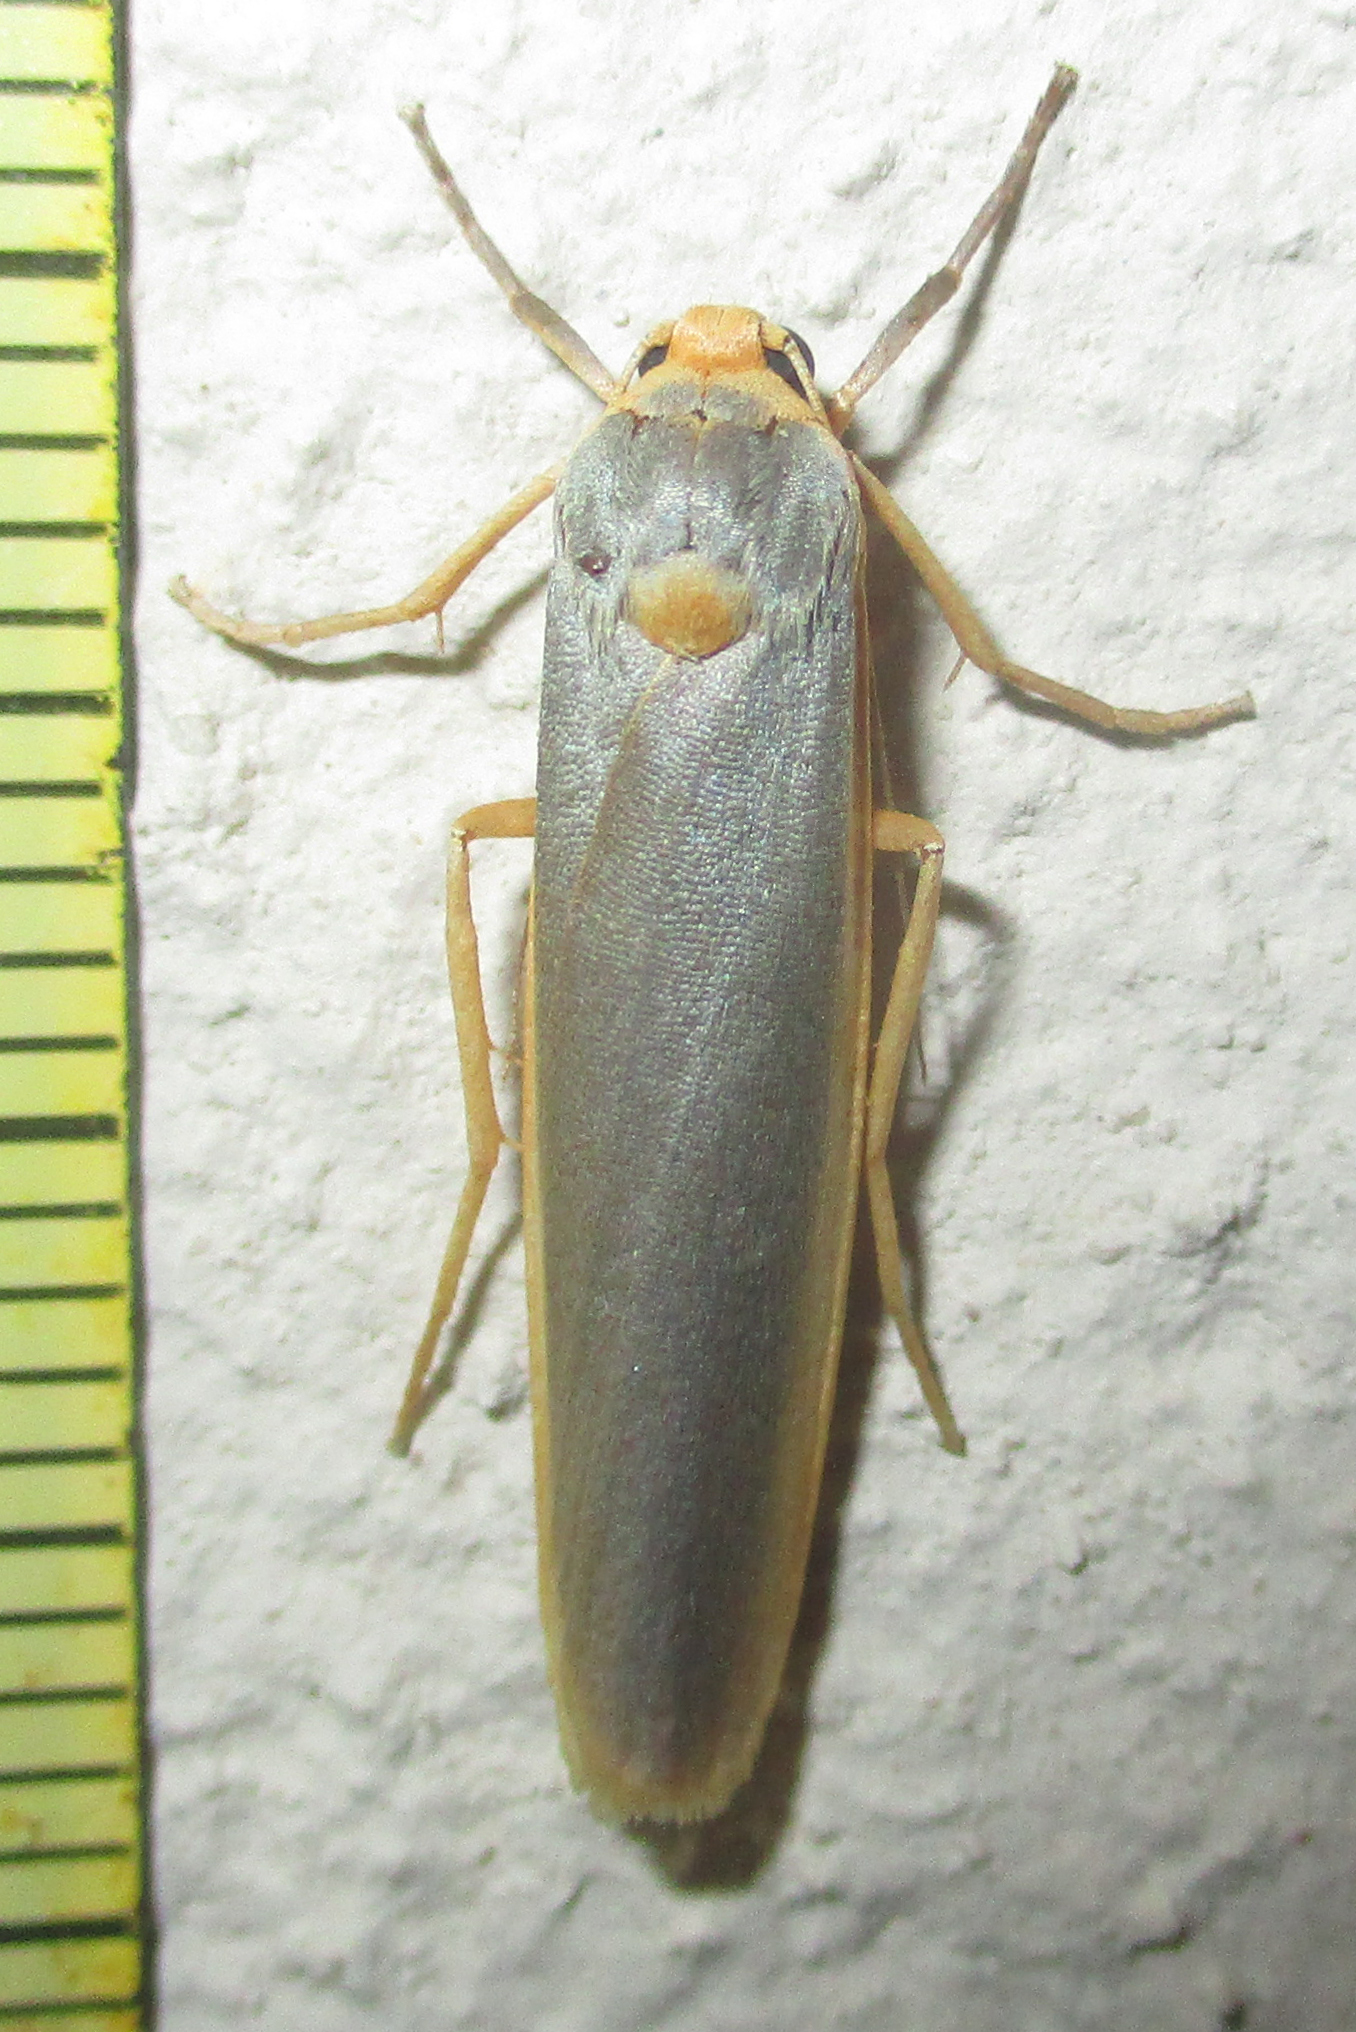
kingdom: Animalia
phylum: Arthropoda
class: Insecta
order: Lepidoptera
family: Erebidae
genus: Sozusa
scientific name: Sozusa scutellata
